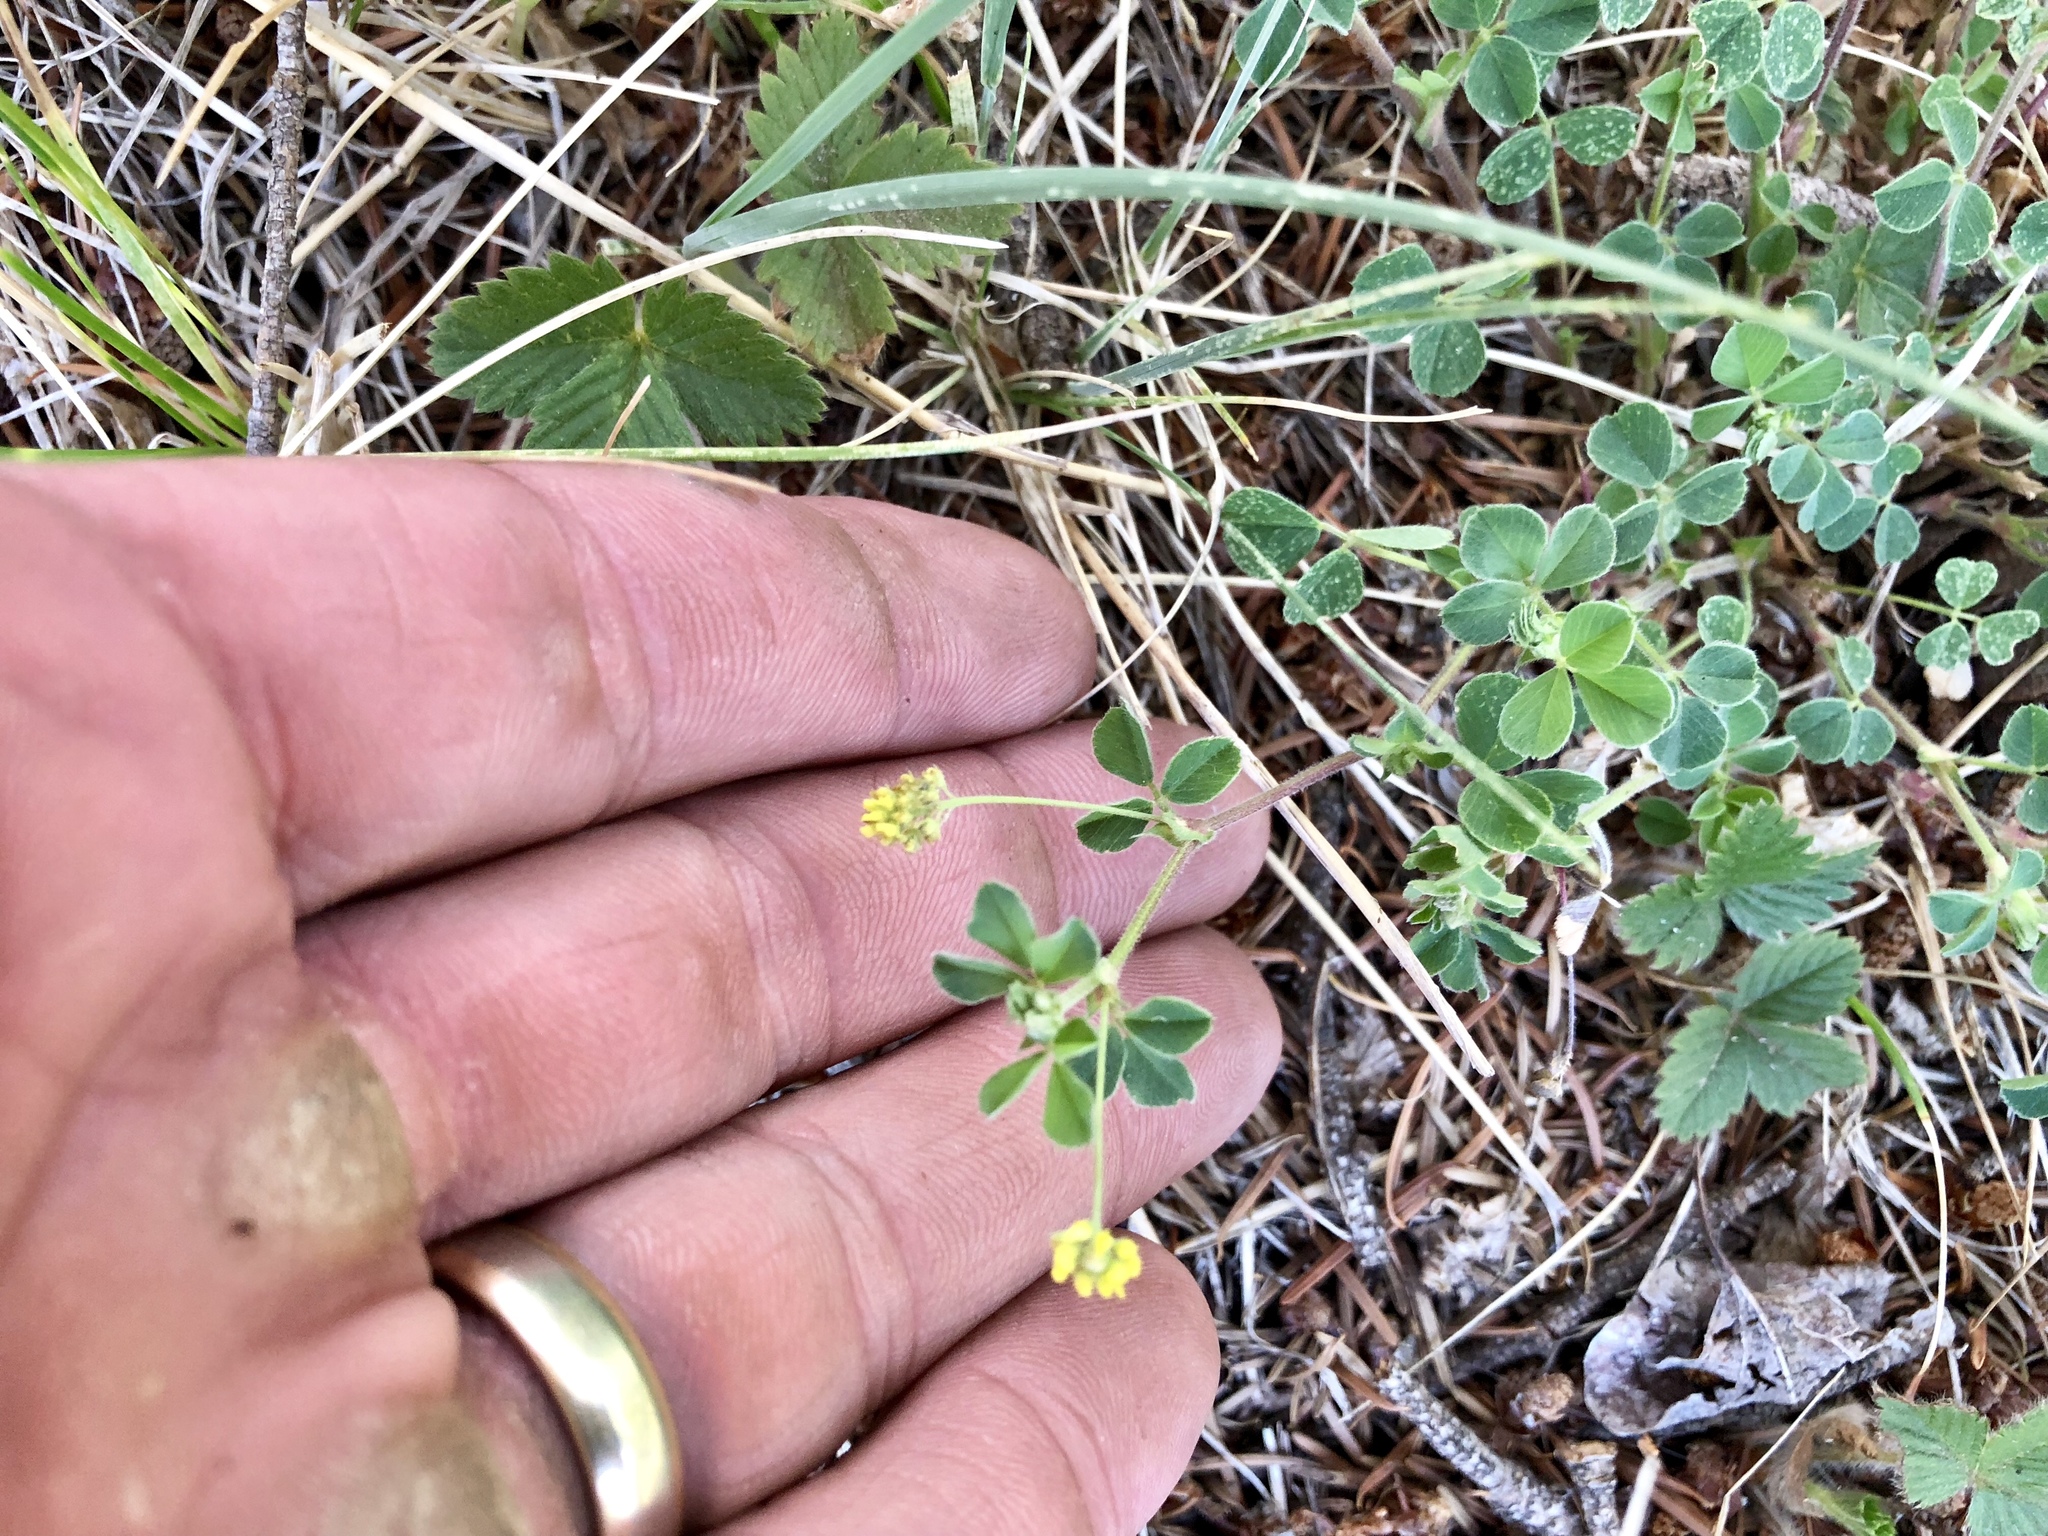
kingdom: Plantae
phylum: Tracheophyta
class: Magnoliopsida
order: Fabales
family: Fabaceae
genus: Medicago
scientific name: Medicago lupulina
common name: Black medick
